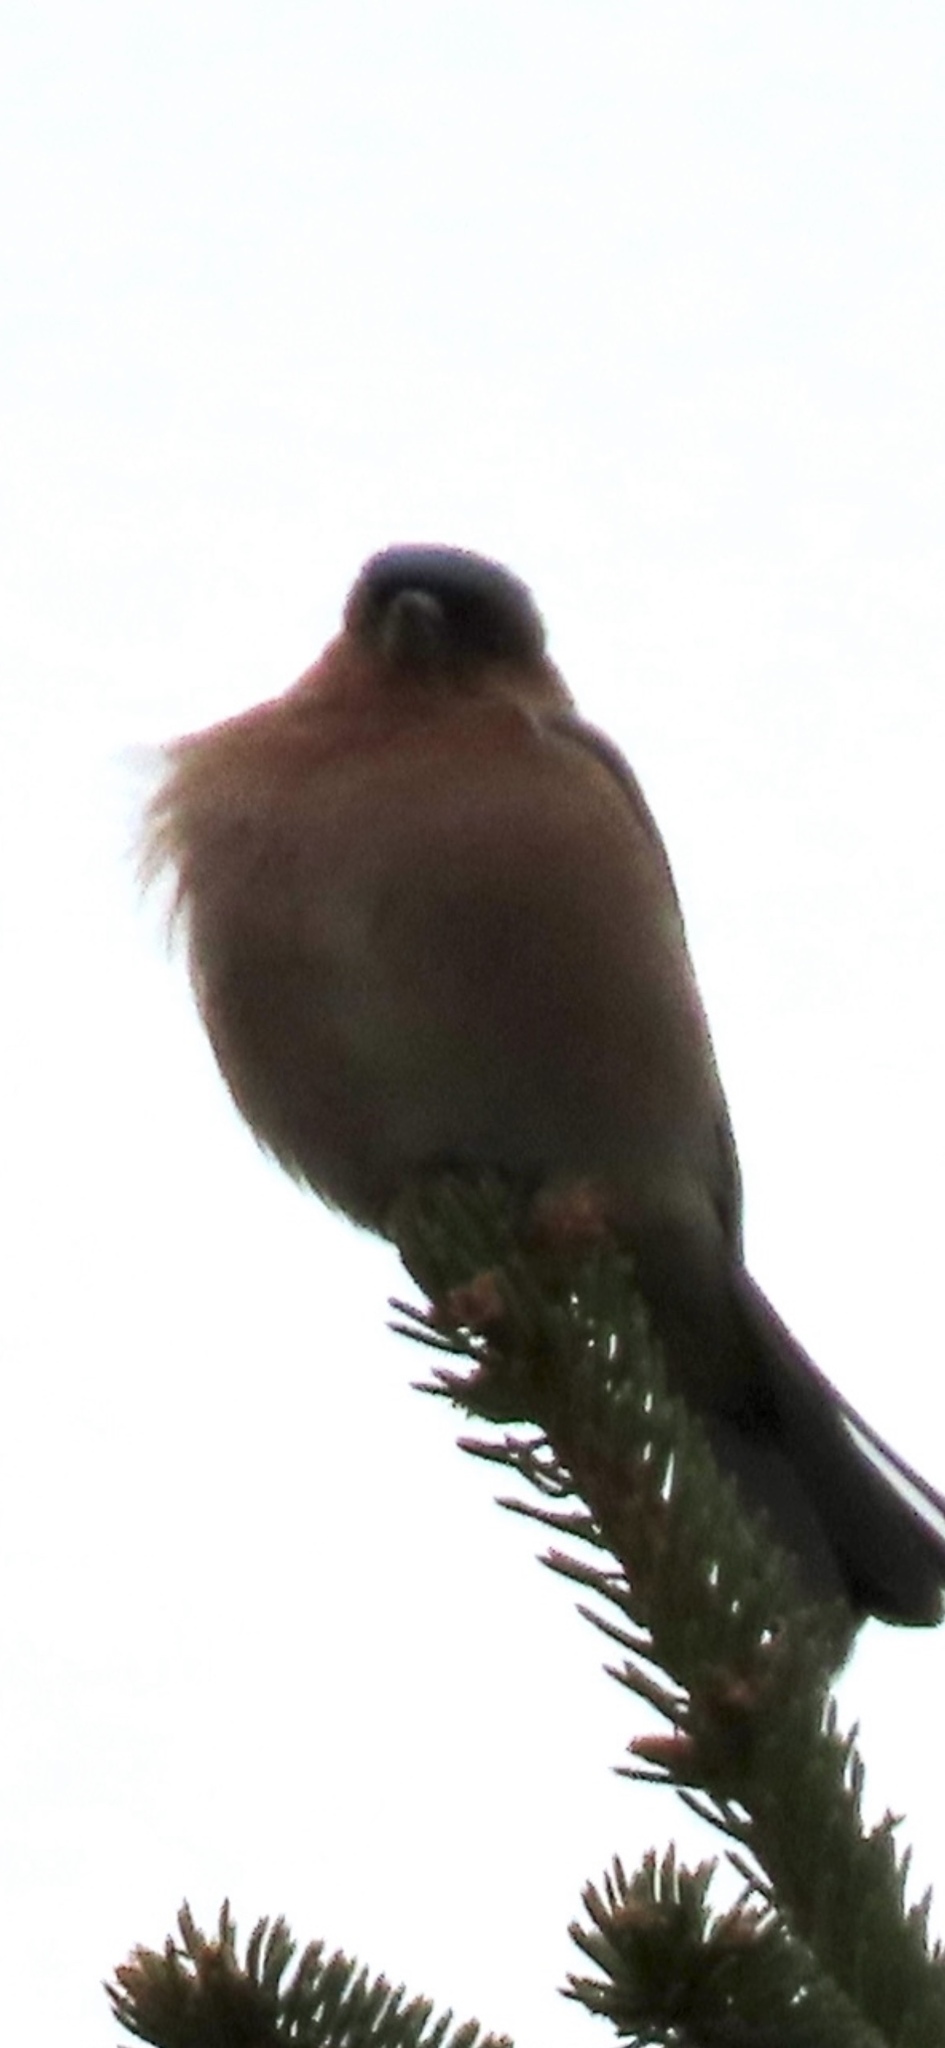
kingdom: Animalia
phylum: Chordata
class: Aves
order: Passeriformes
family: Fringillidae
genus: Fringilla
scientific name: Fringilla coelebs
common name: Common chaffinch
